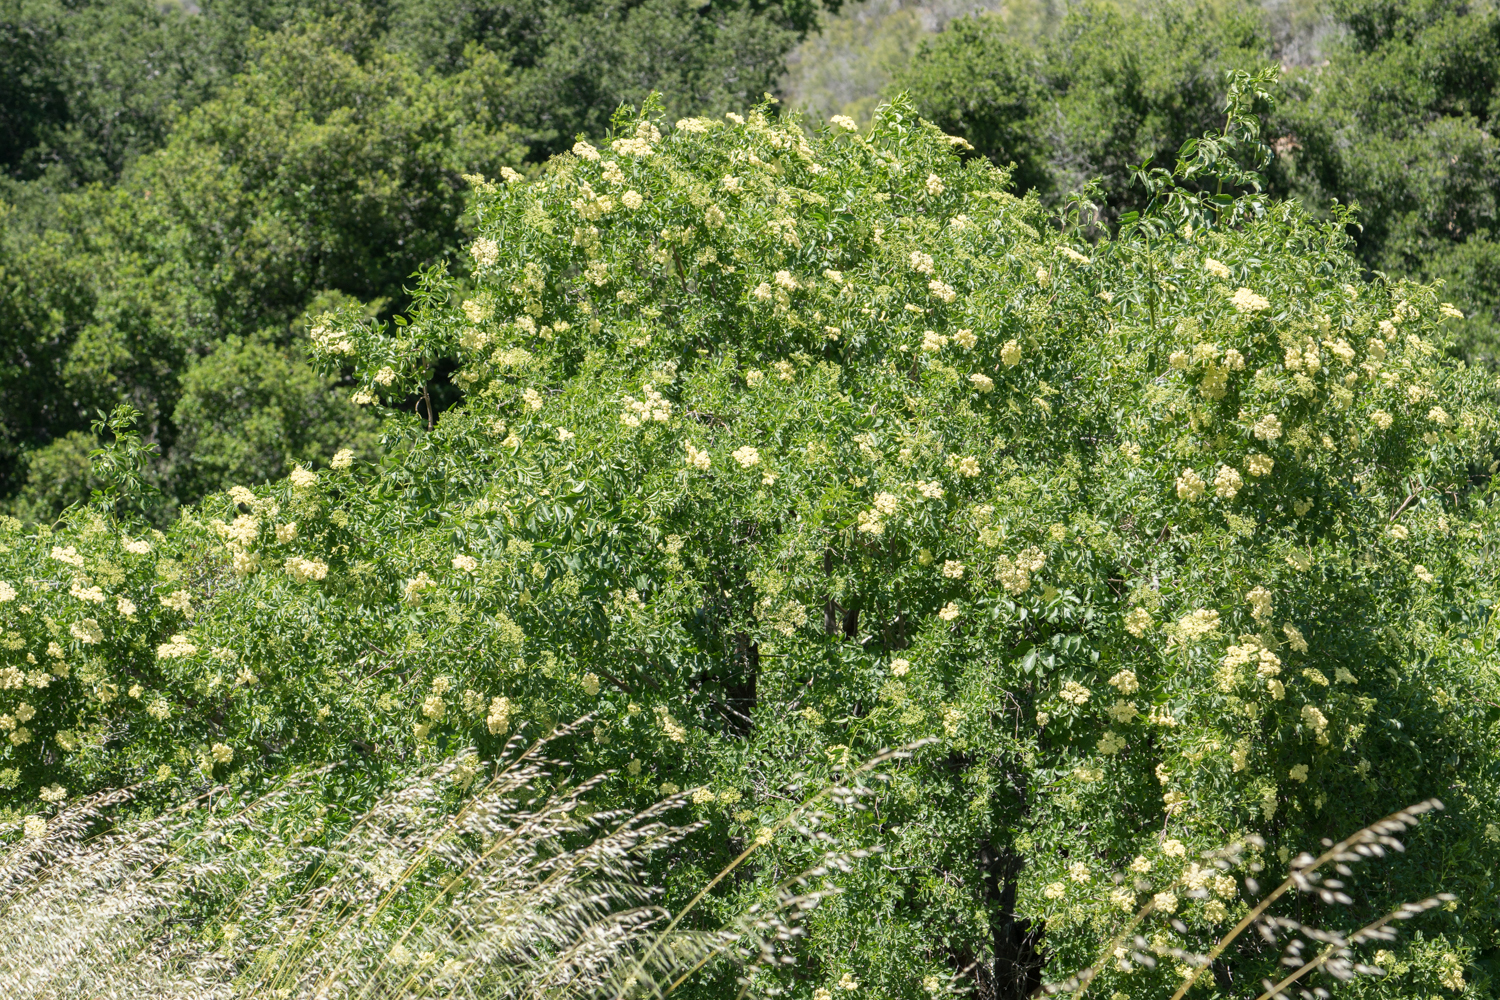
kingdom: Plantae
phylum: Tracheophyta
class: Magnoliopsida
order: Dipsacales
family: Viburnaceae
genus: Sambucus
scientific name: Sambucus cerulea
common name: Blue elder
